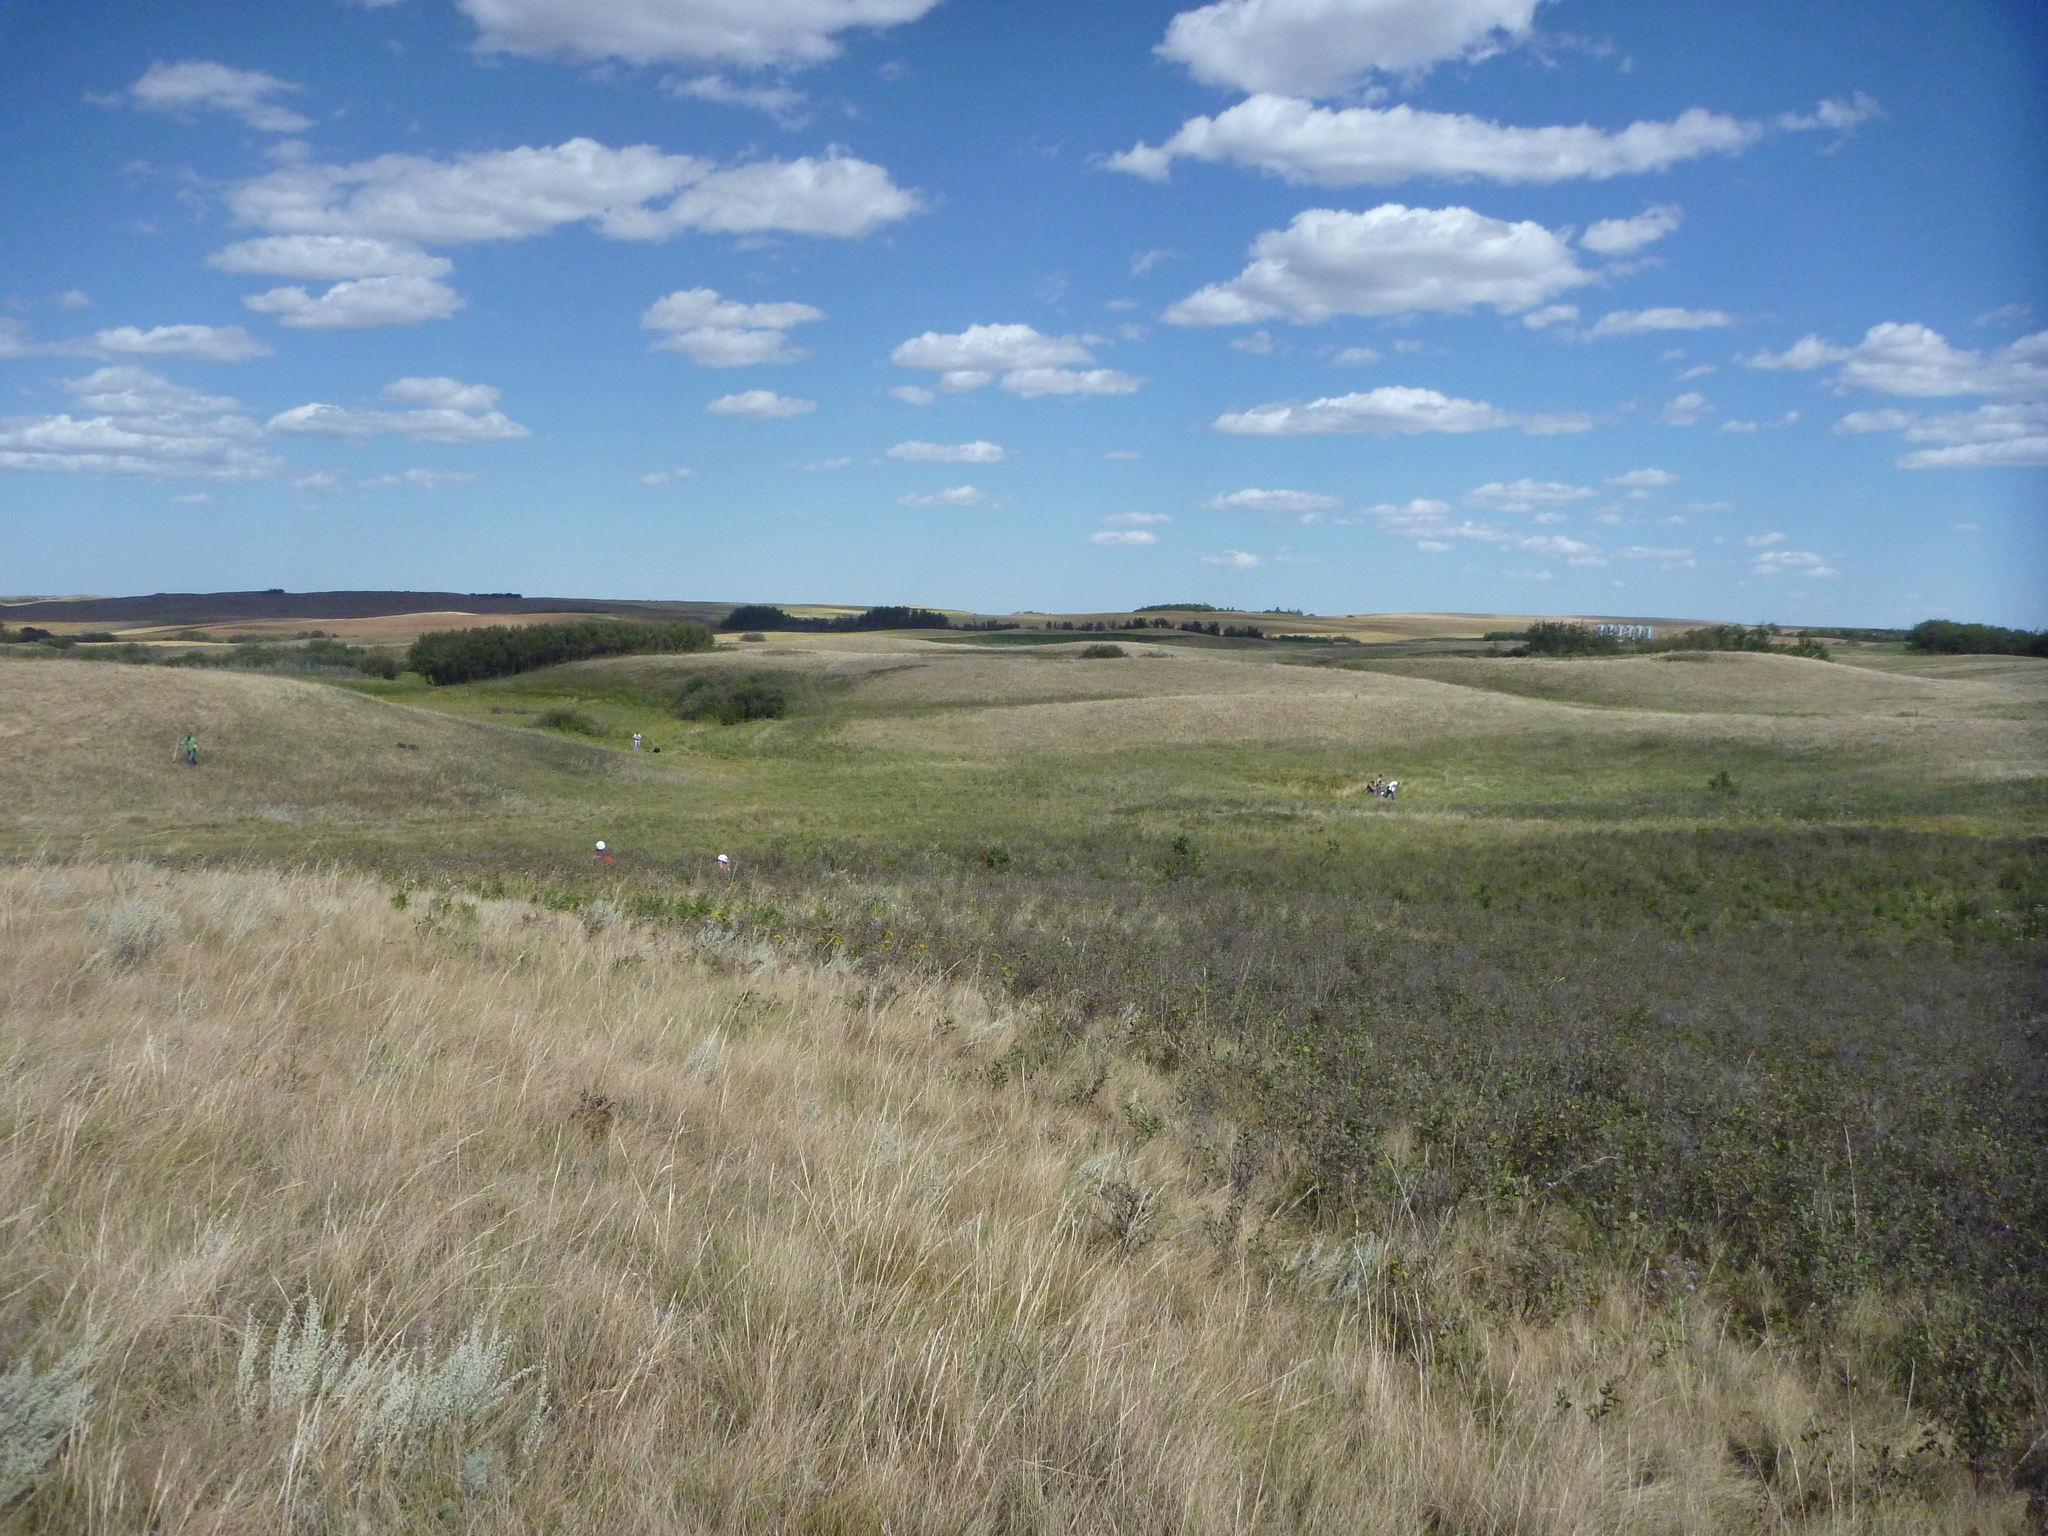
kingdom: Plantae
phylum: Tracheophyta
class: Magnoliopsida
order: Asterales
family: Asteraceae
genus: Artemisia
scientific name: Artemisia frigida
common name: Prairie sagewort
